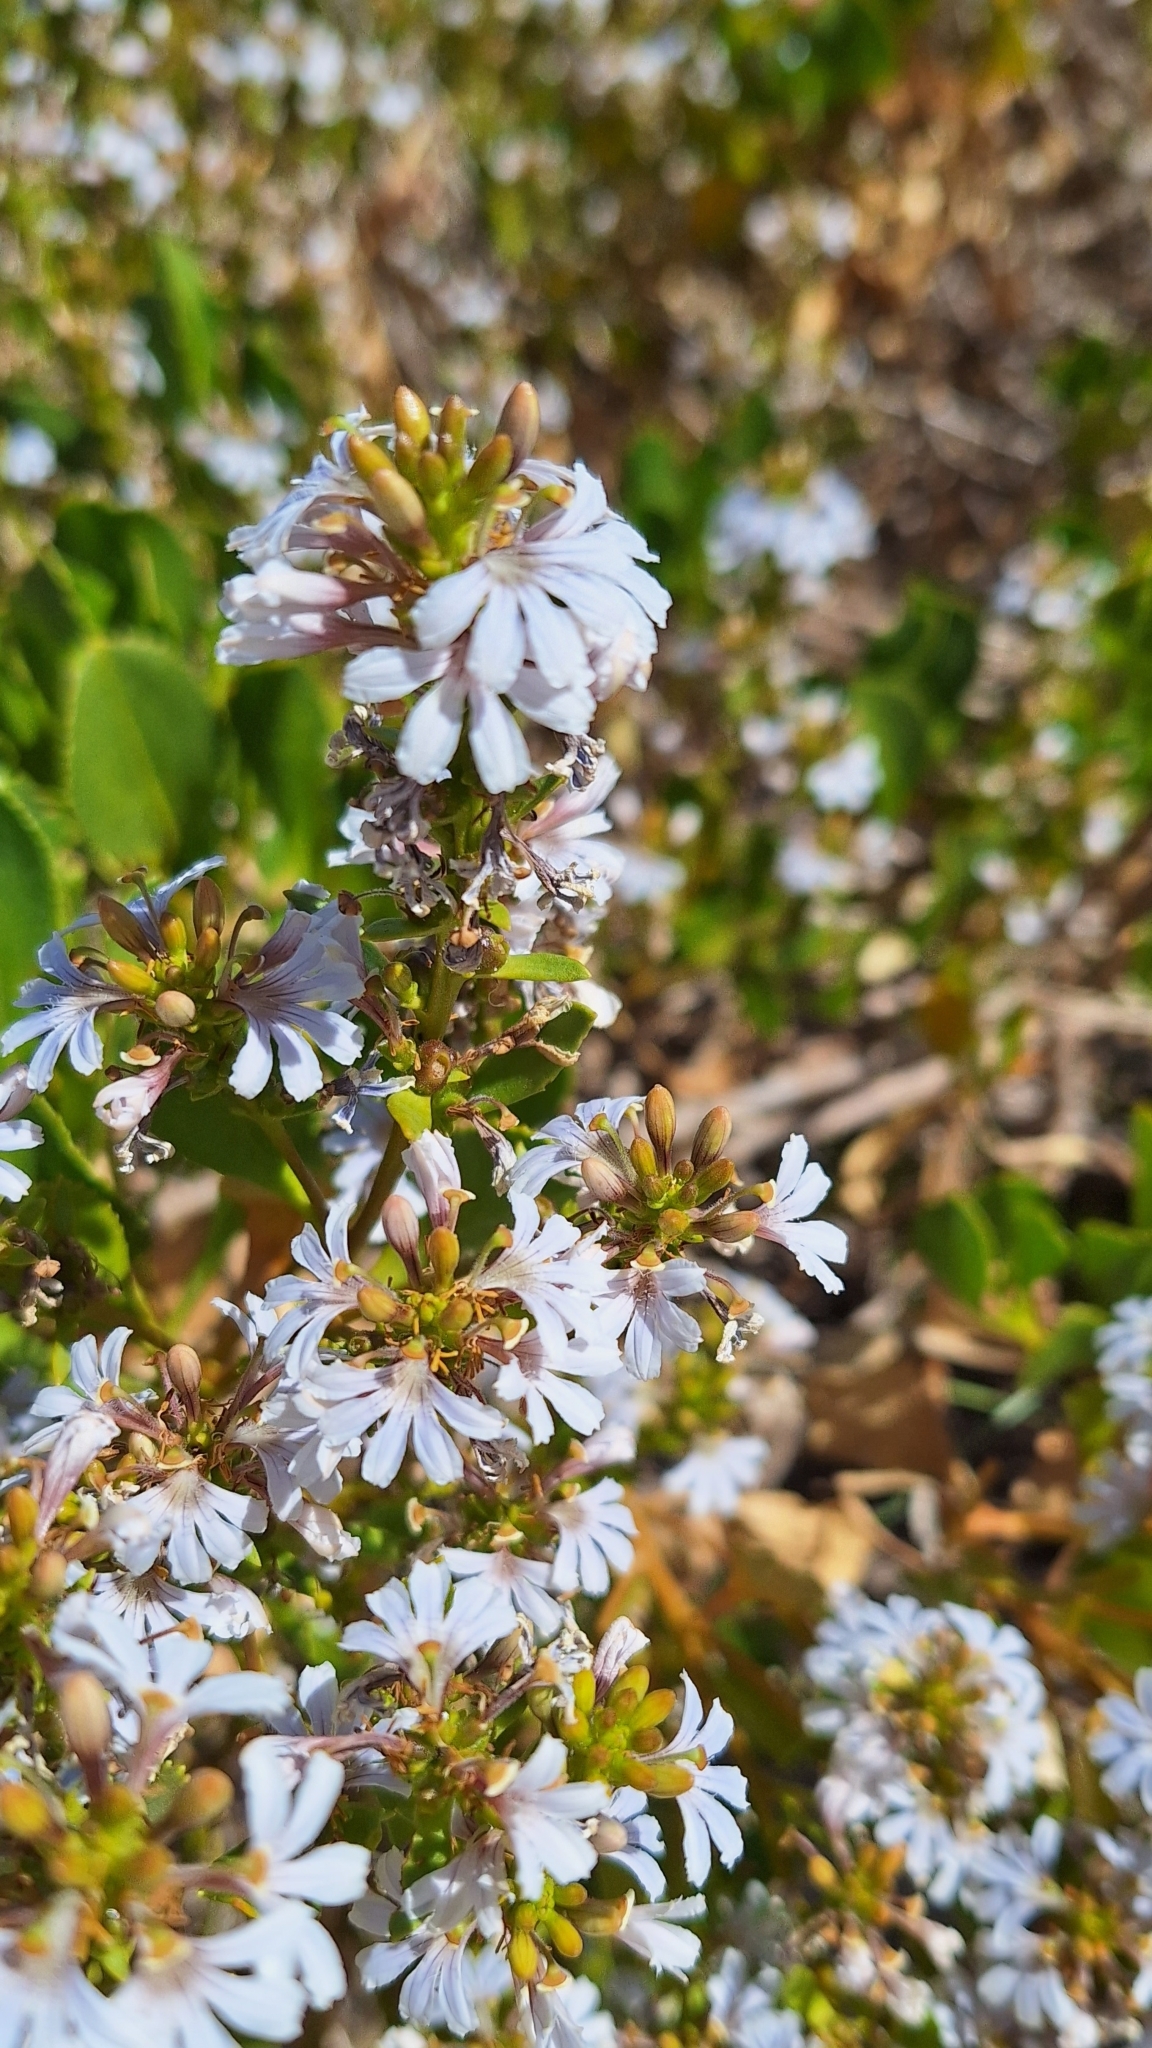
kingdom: Plantae
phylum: Tracheophyta
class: Magnoliopsida
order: Asterales
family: Goodeniaceae
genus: Scaevola
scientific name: Scaevola crassifolia
